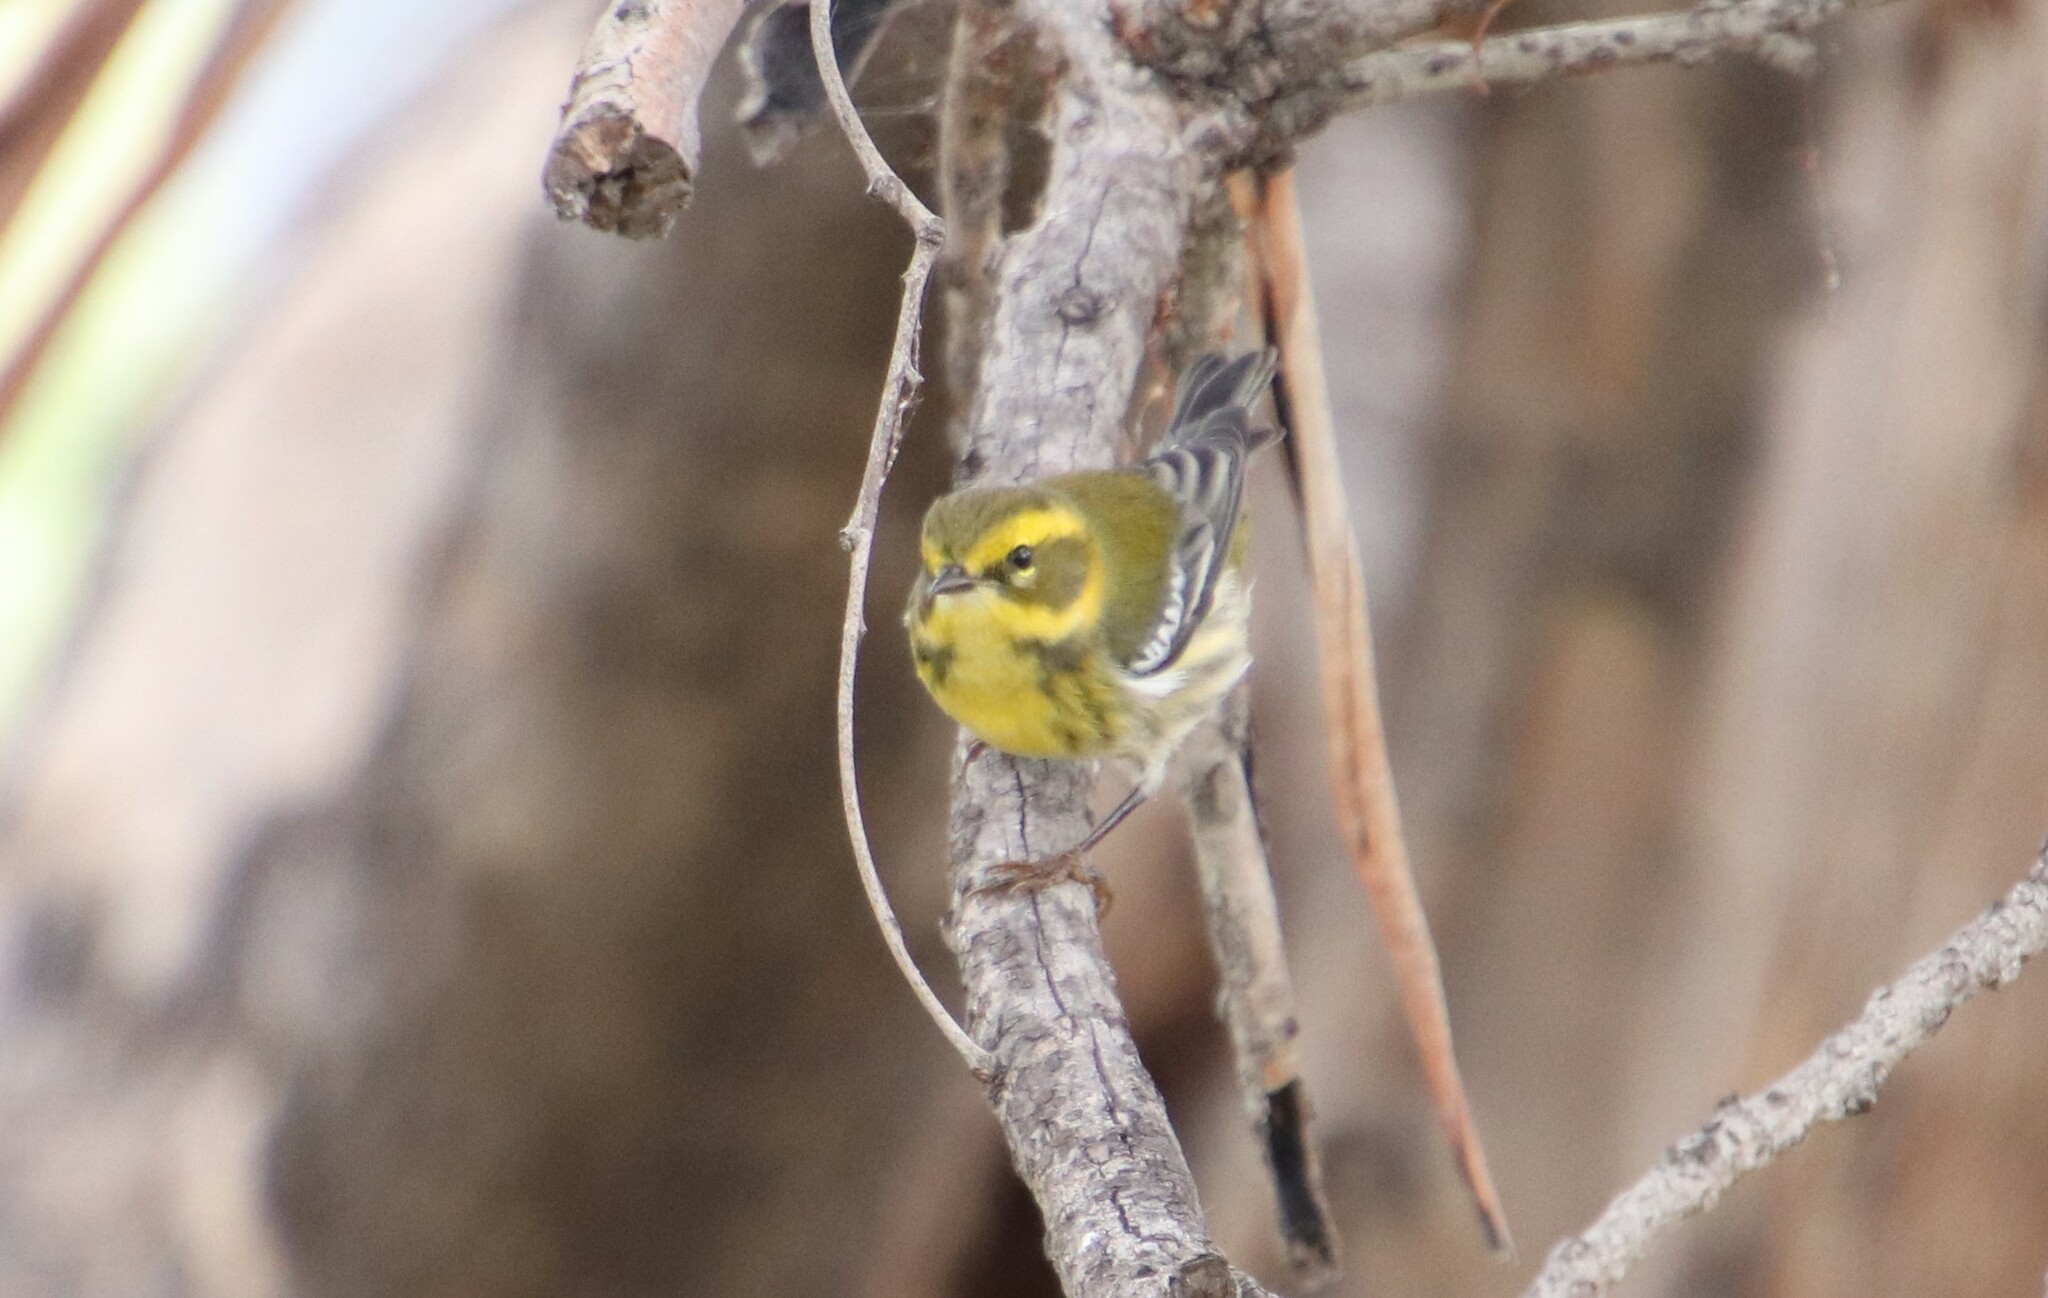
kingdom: Animalia
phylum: Chordata
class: Aves
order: Passeriformes
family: Parulidae
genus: Setophaga
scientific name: Setophaga townsendi
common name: Townsend's warbler
